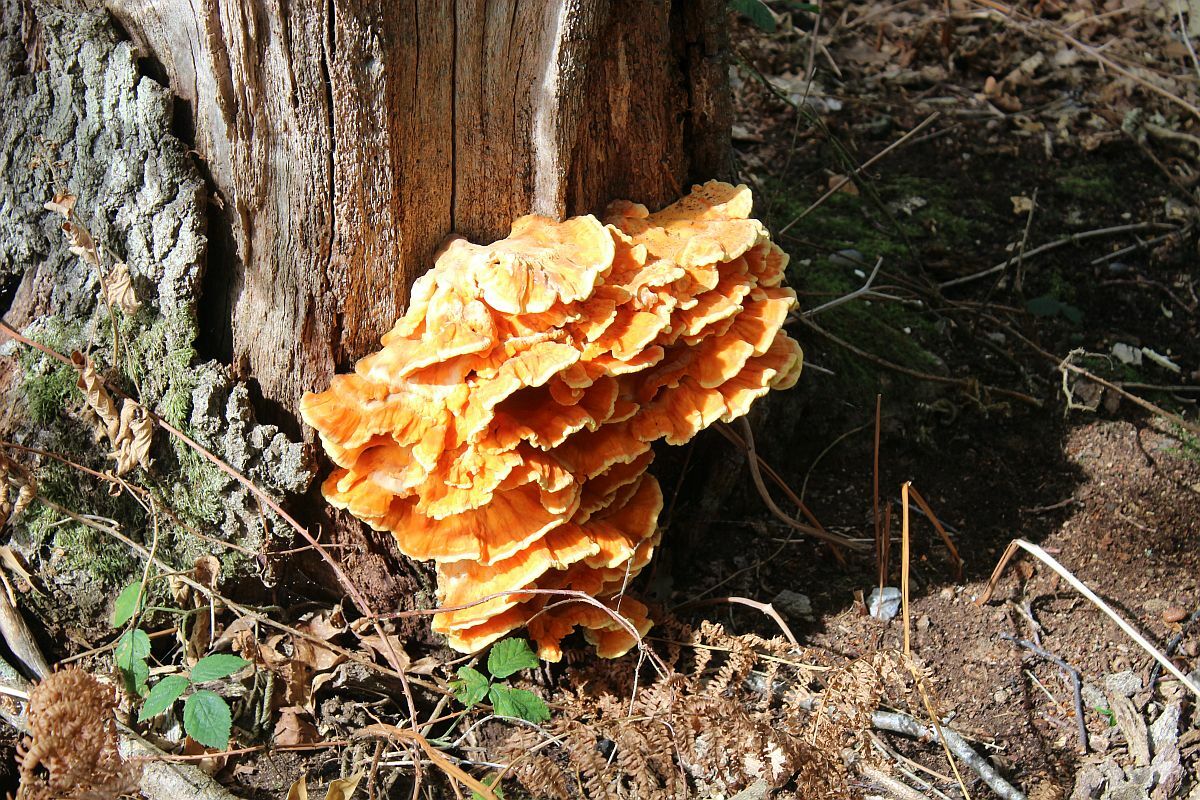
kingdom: Fungi
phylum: Basidiomycota
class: Agaricomycetes
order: Polyporales
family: Laetiporaceae
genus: Laetiporus
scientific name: Laetiporus sulphureus
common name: Chicken of the woods
